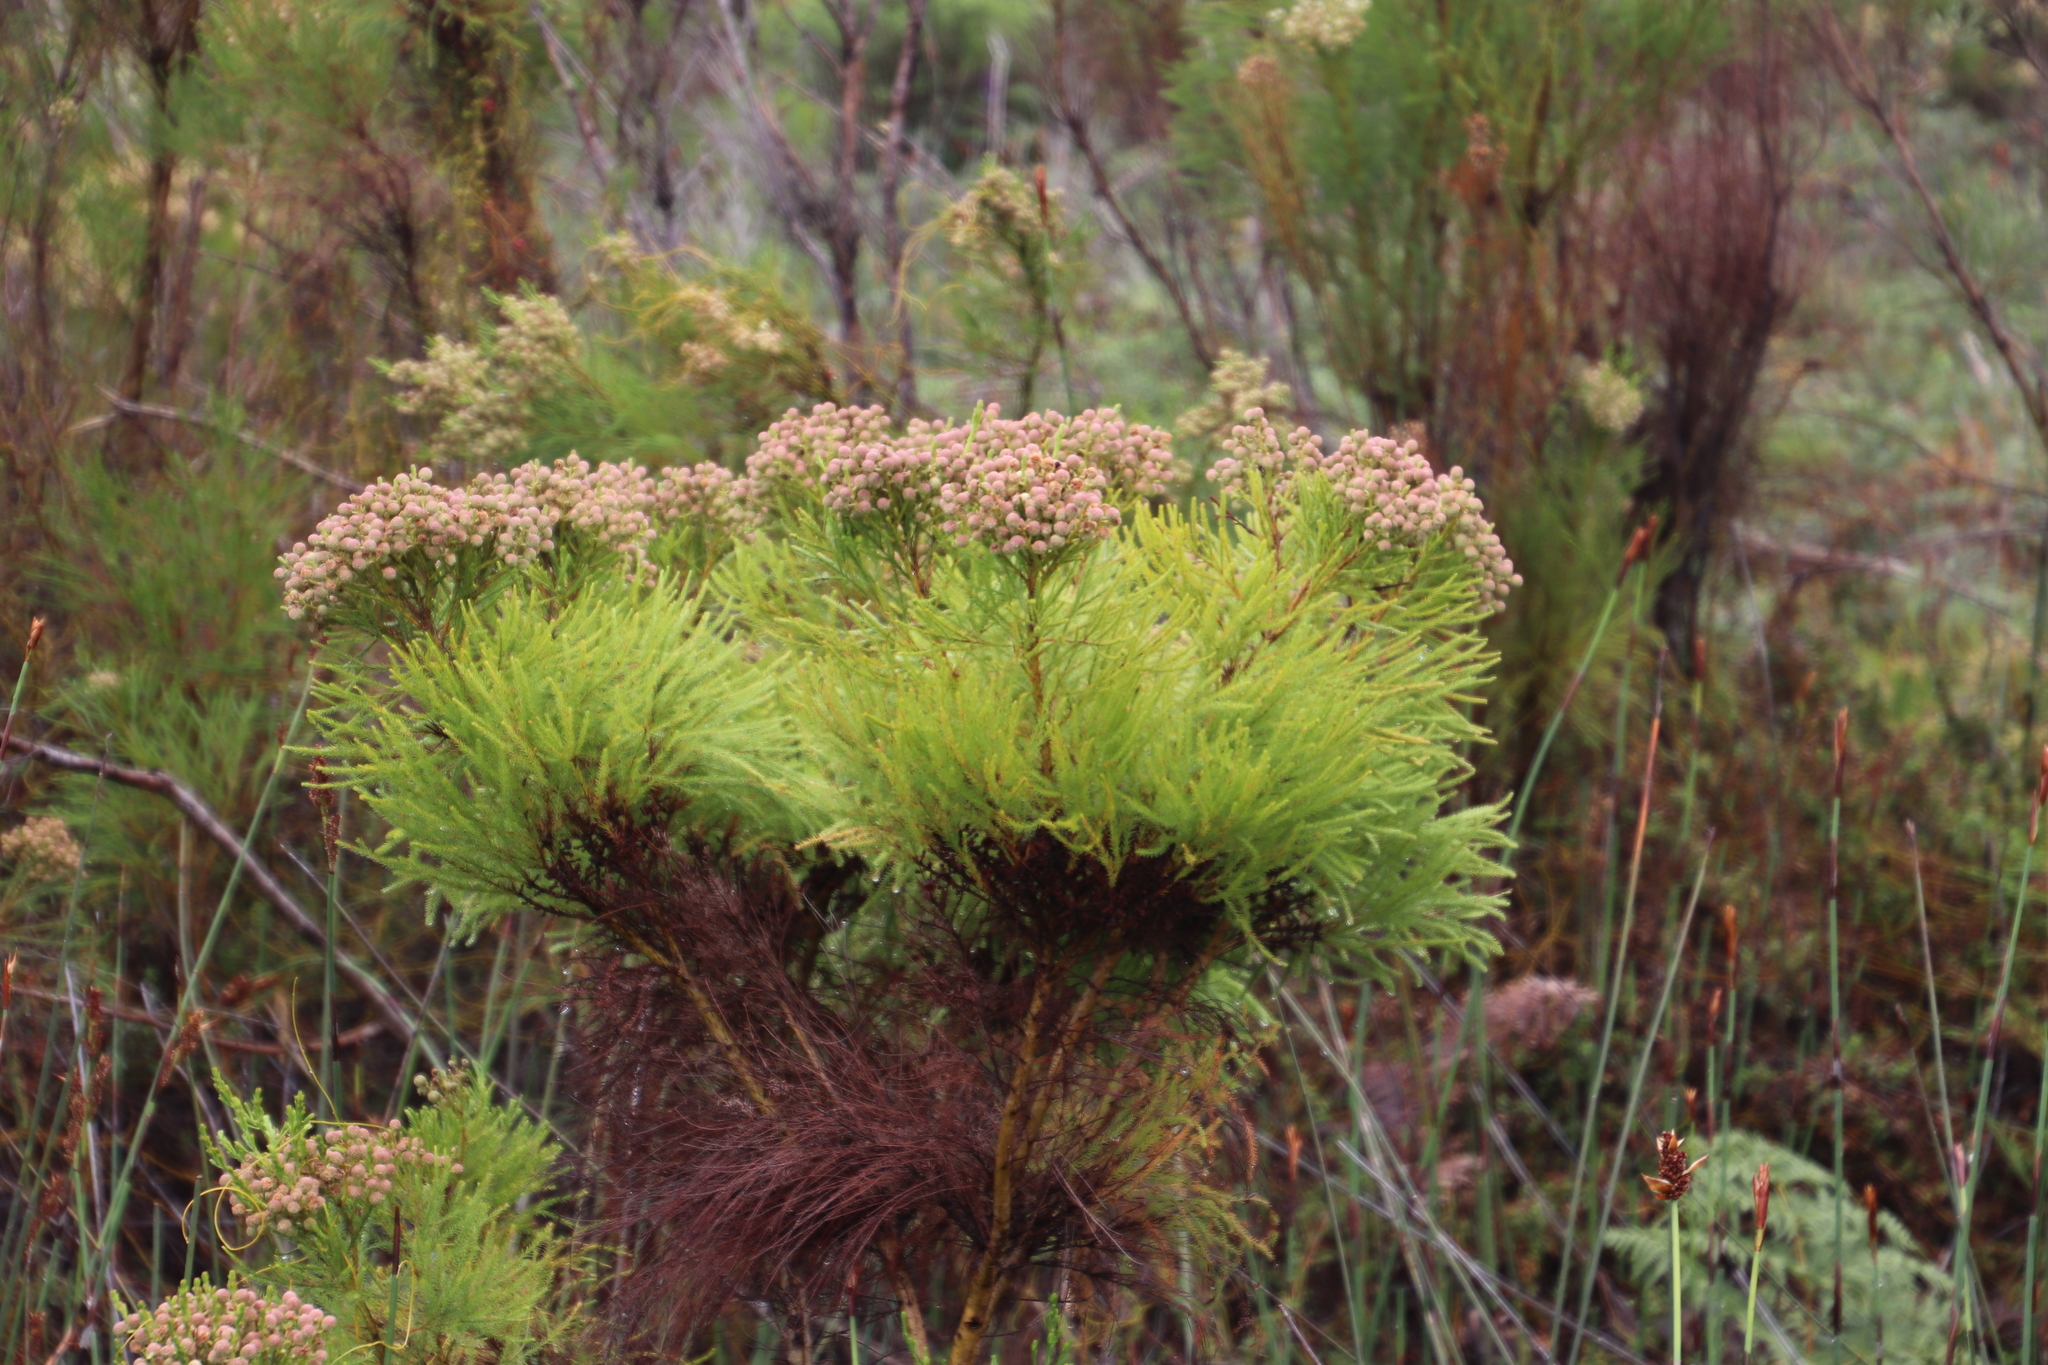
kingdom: Plantae
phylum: Tracheophyta
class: Magnoliopsida
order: Bruniales
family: Bruniaceae
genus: Berzelia
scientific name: Berzelia lanuginosa
